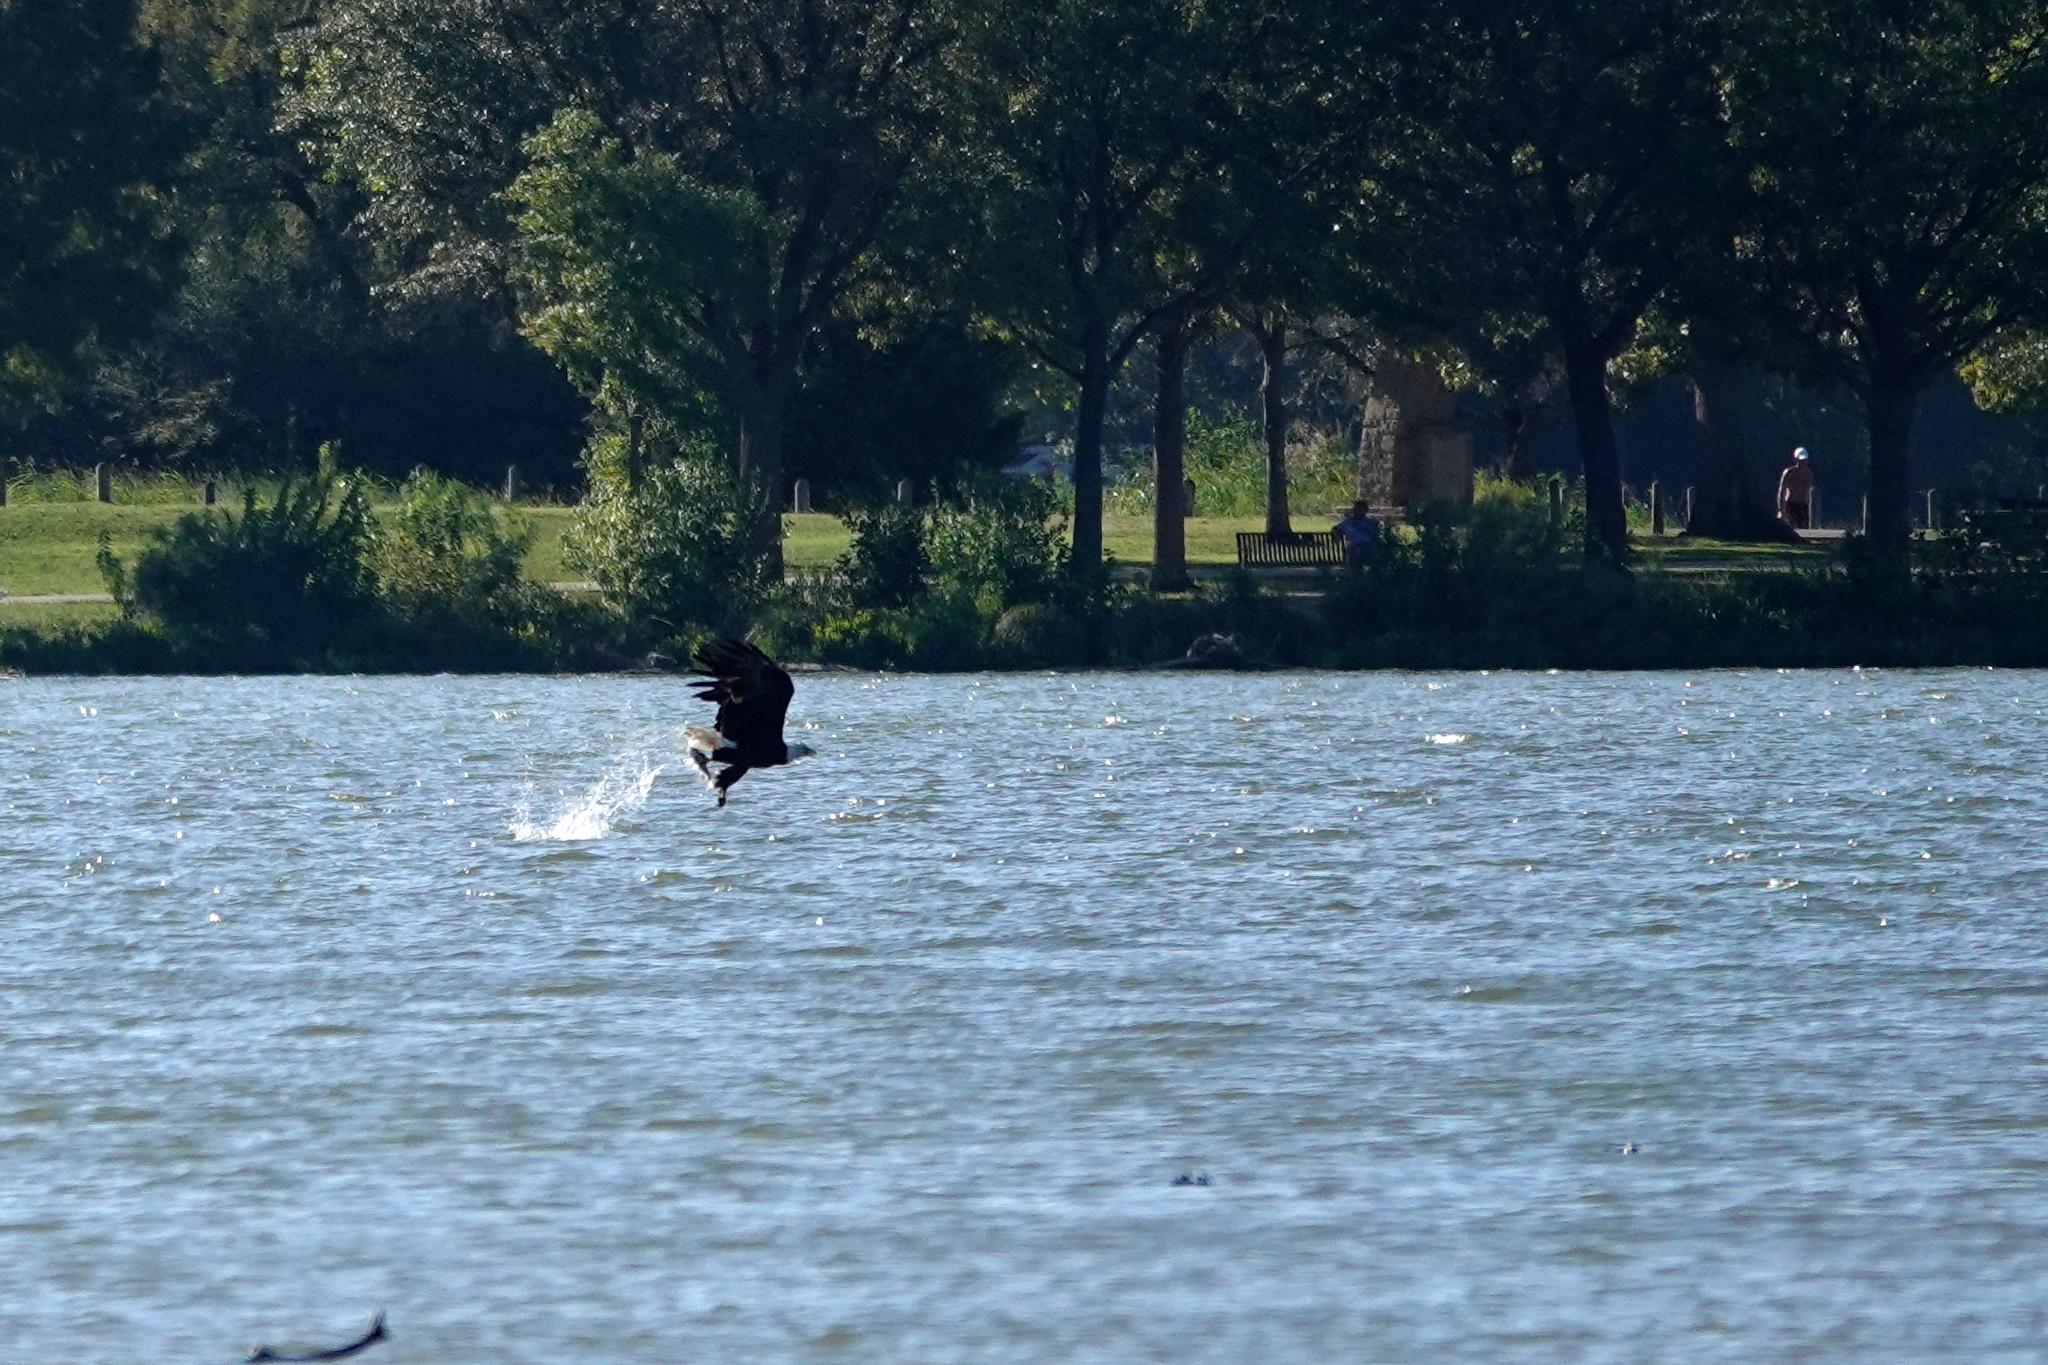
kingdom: Animalia
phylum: Chordata
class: Aves
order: Accipitriformes
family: Accipitridae
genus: Haliaeetus
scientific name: Haliaeetus leucocephalus
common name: Bald eagle
